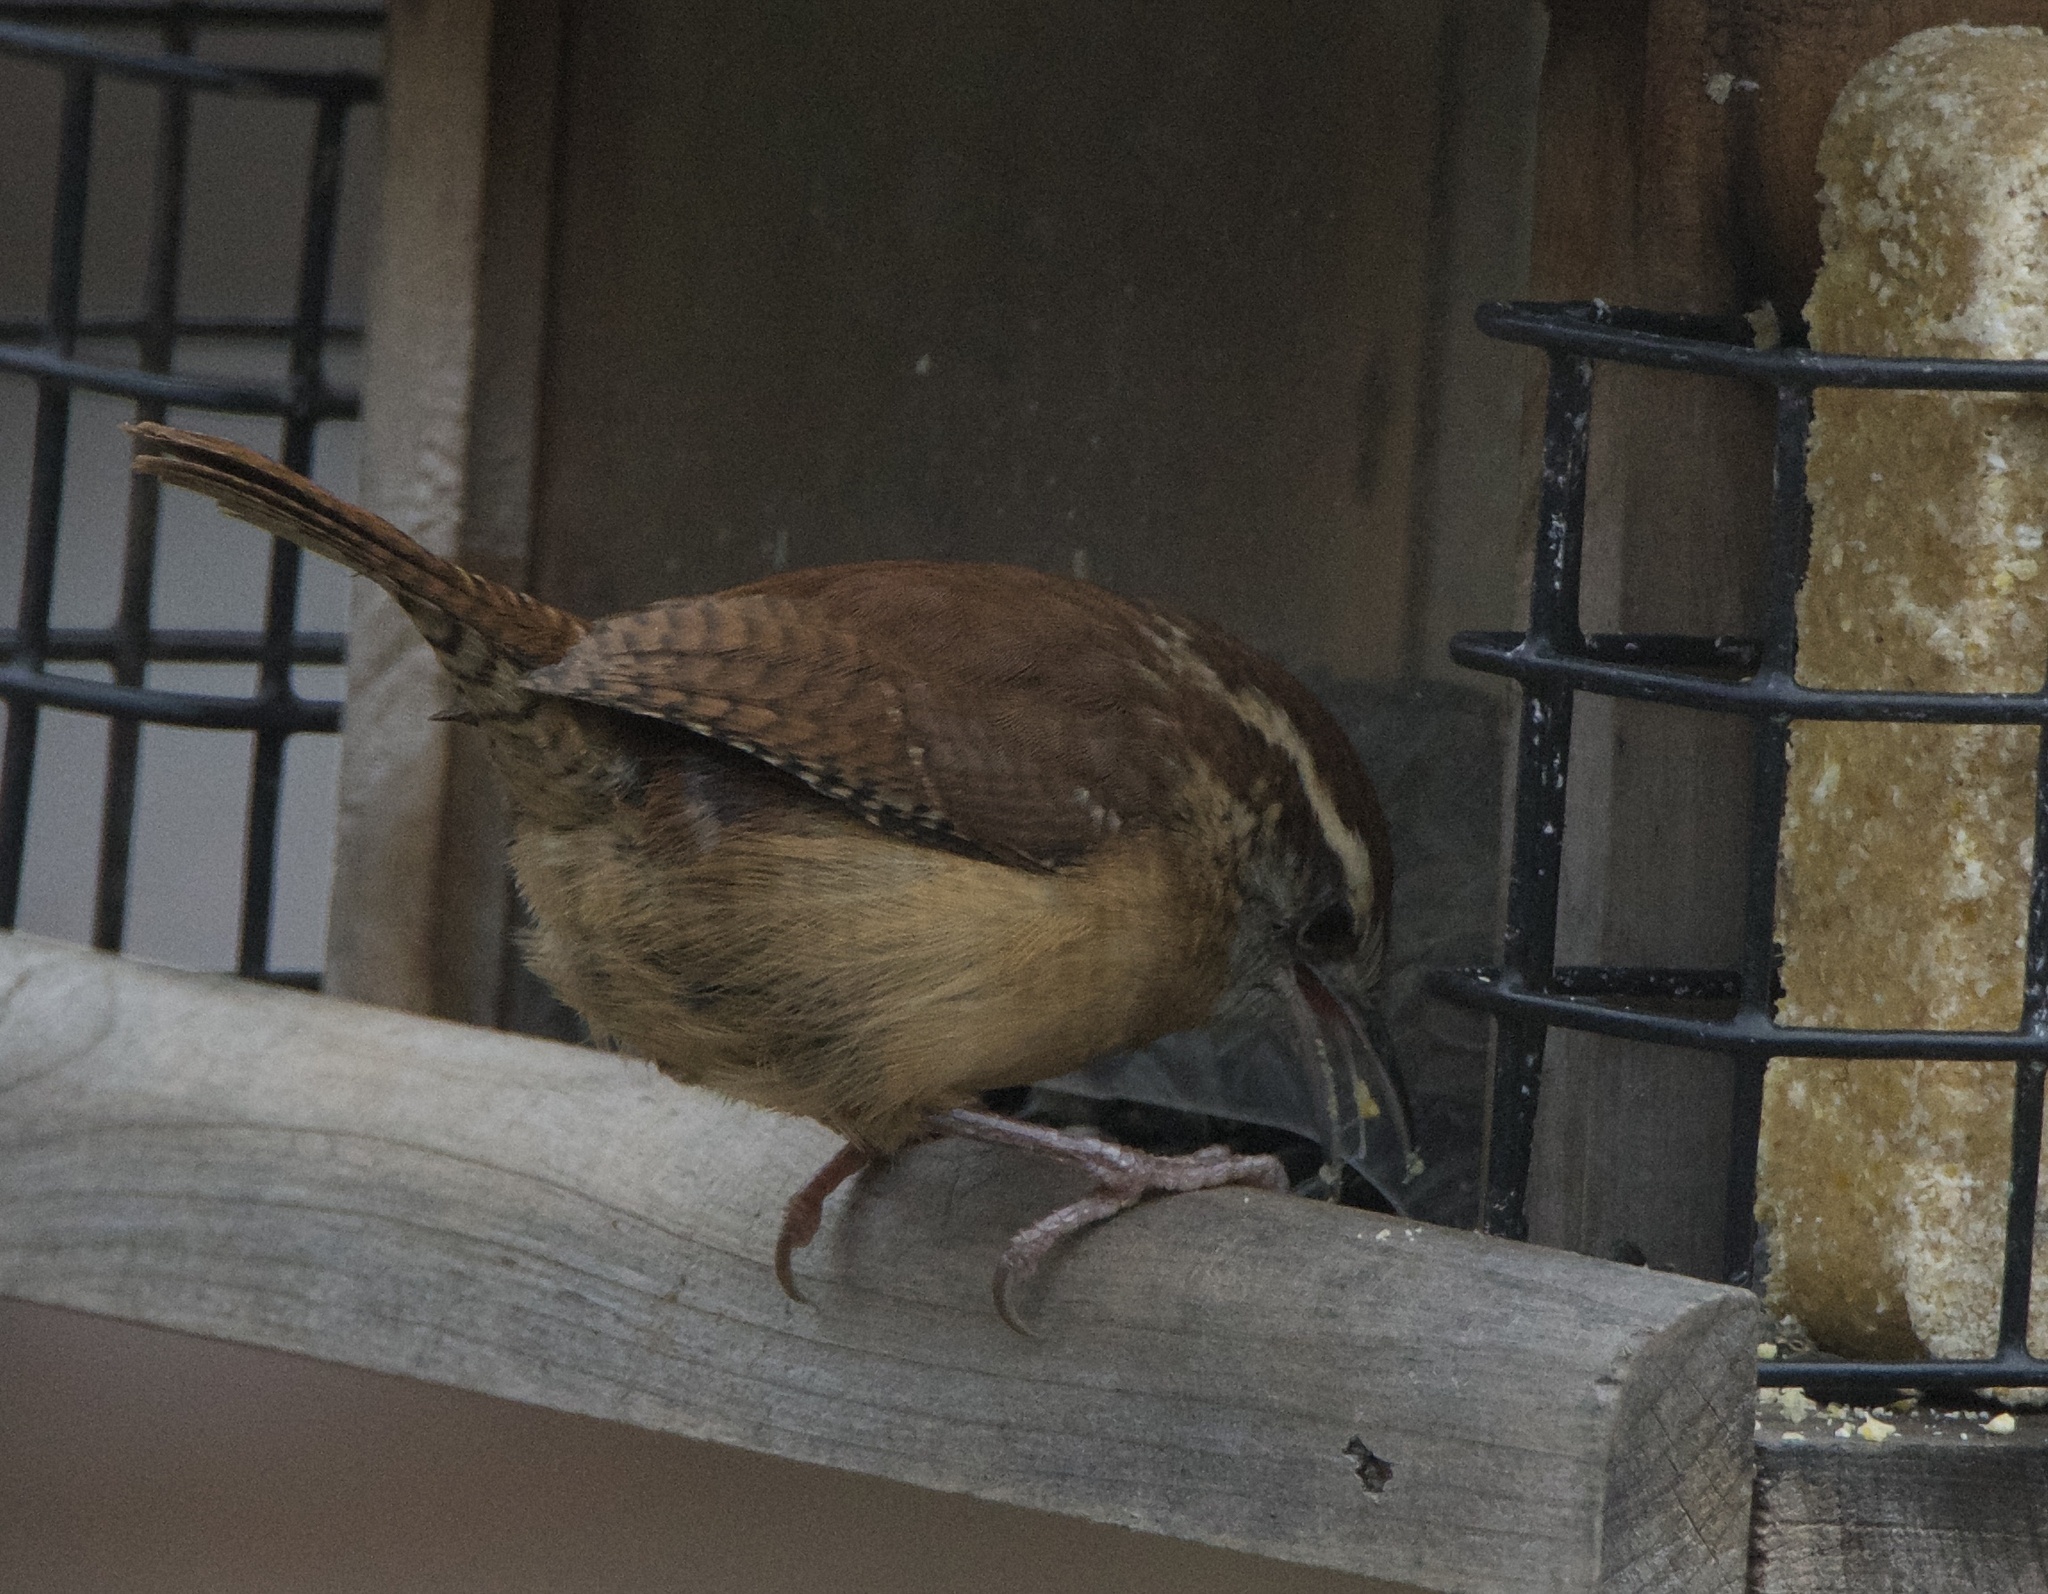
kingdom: Animalia
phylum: Chordata
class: Aves
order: Passeriformes
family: Troglodytidae
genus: Thryothorus
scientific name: Thryothorus ludovicianus
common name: Carolina wren
